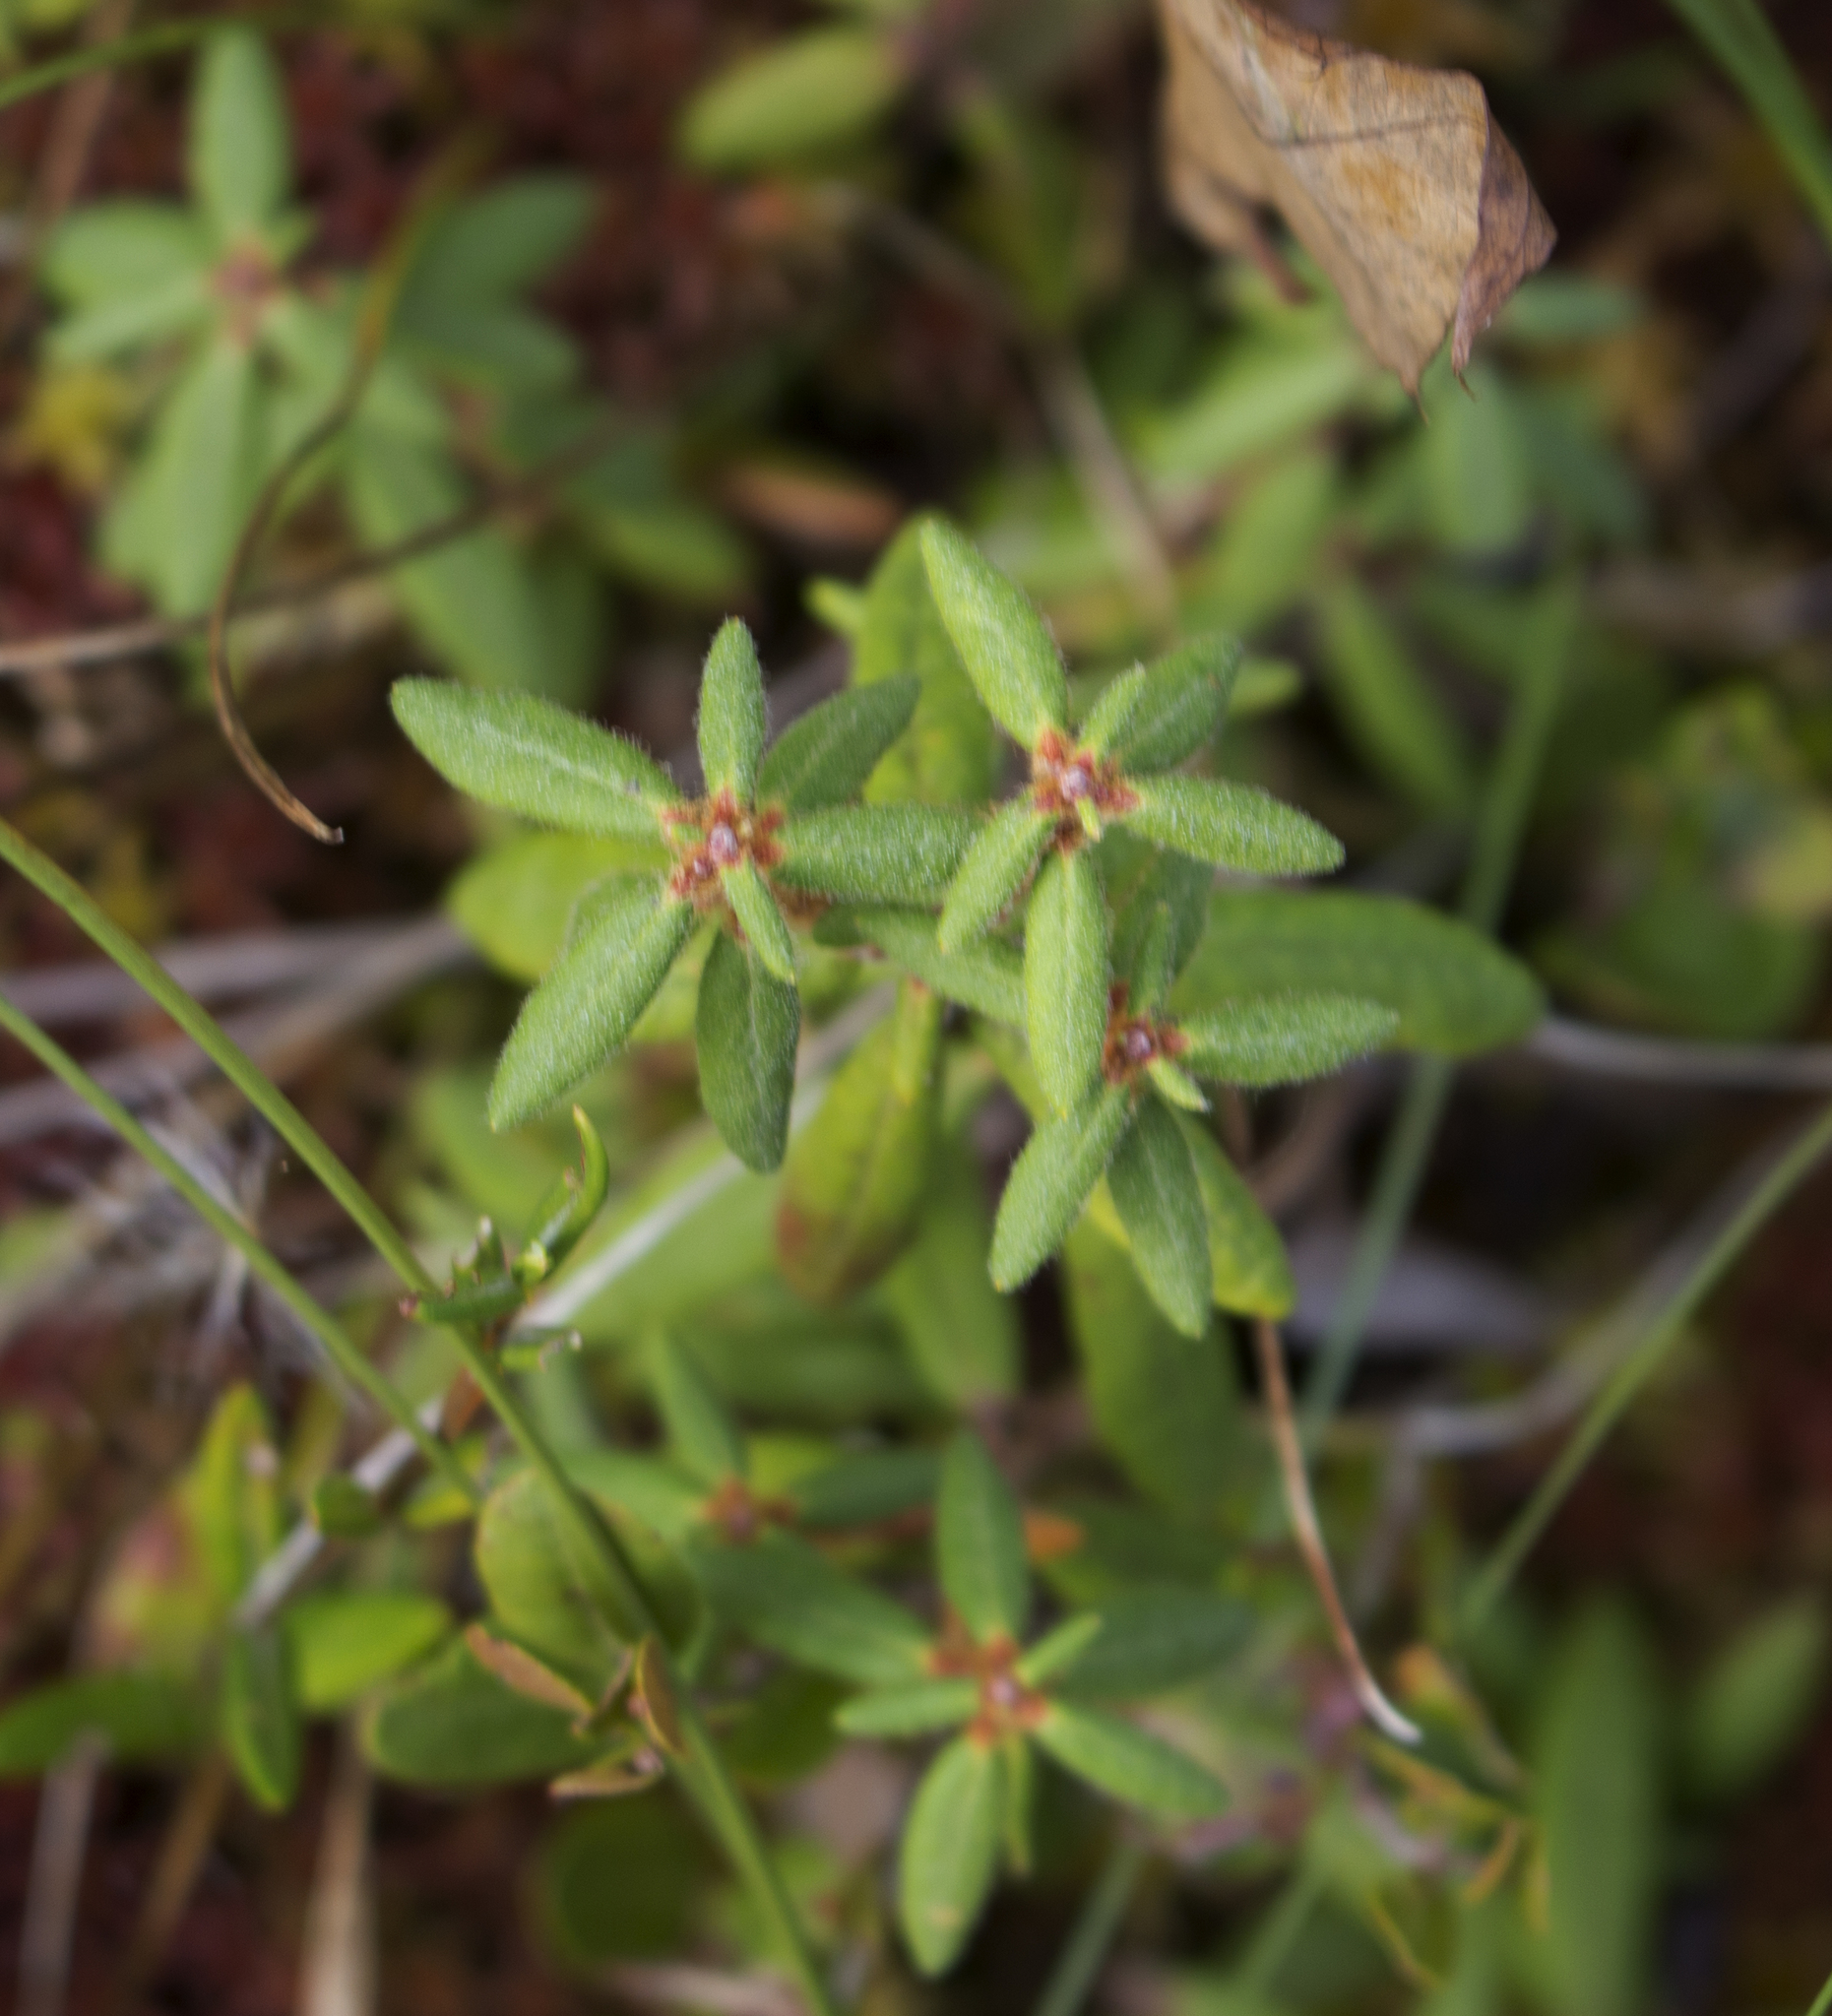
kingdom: Plantae
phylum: Tracheophyta
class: Magnoliopsida
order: Ericales
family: Ericaceae
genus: Rhododendron
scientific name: Rhododendron groenlandicum
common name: Bog labrador tea
